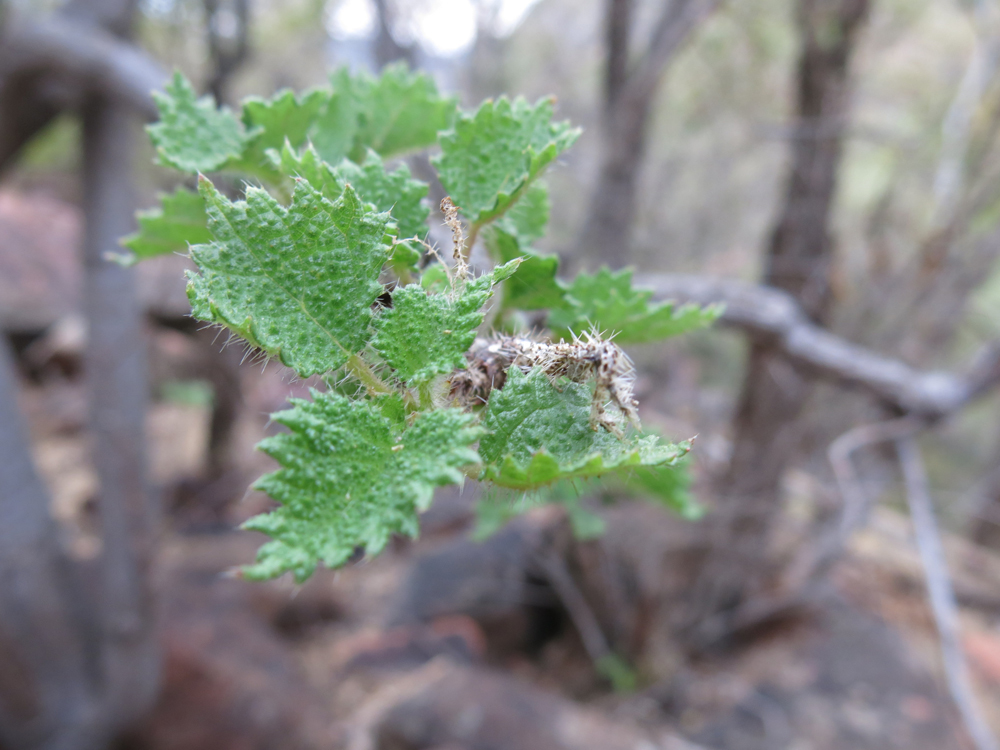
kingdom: Plantae
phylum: Tracheophyta
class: Magnoliopsida
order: Rosales
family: Urticaceae
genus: Obetia
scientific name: Obetia tenax
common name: Rock tree nettle
